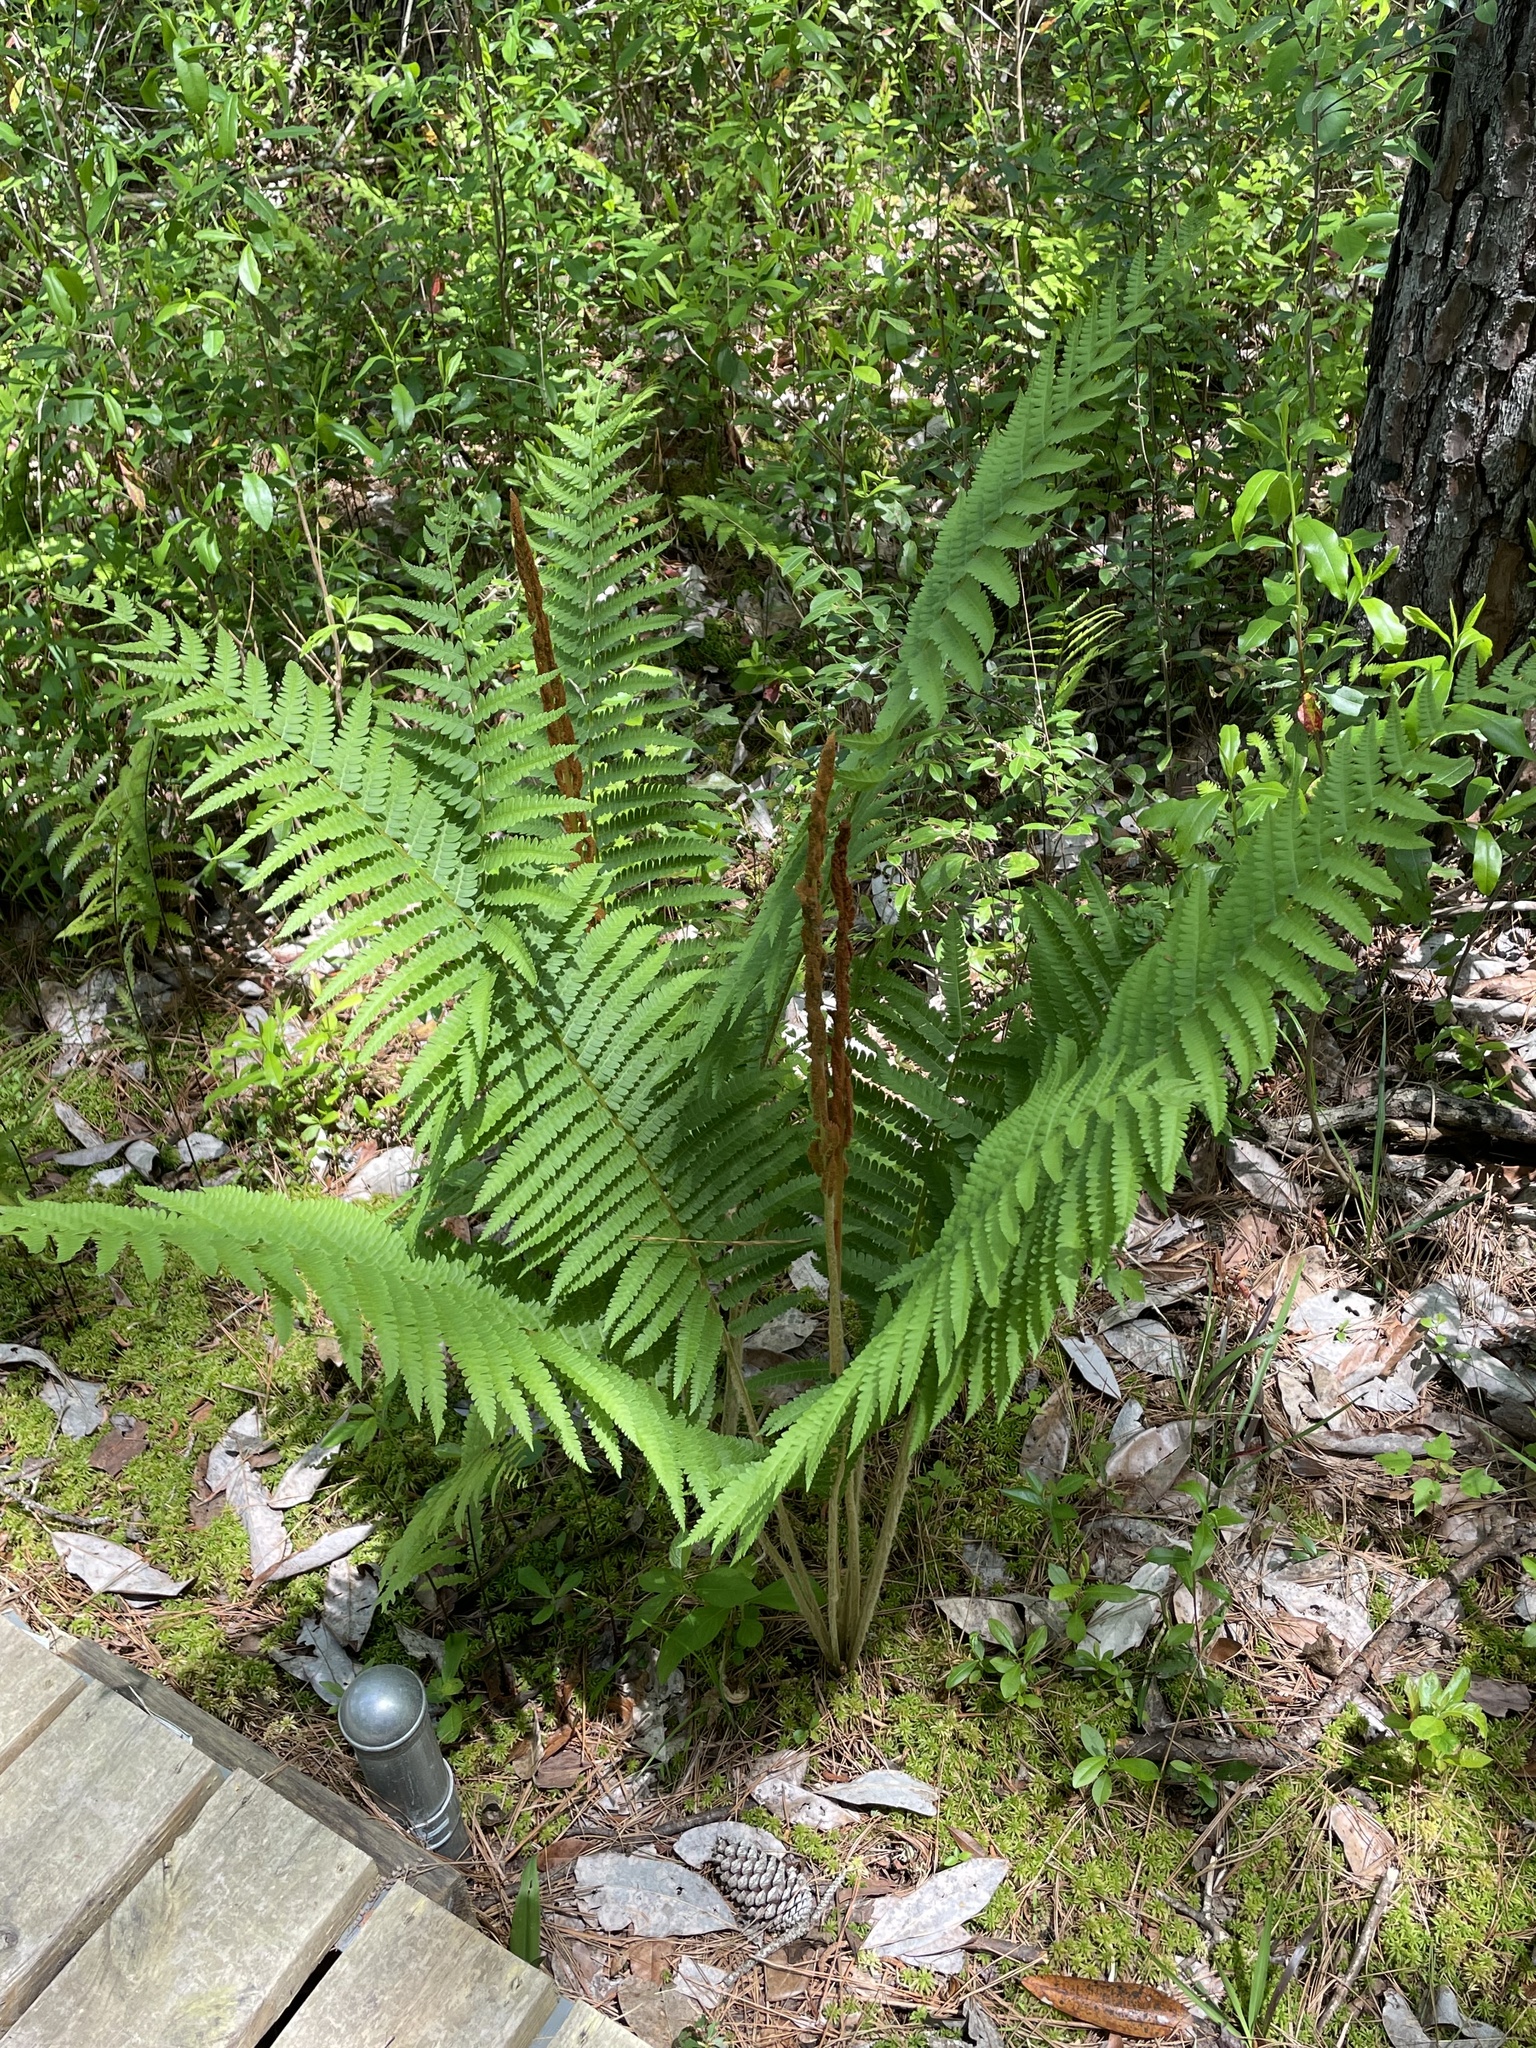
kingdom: Plantae
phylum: Tracheophyta
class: Polypodiopsida
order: Osmundales
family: Osmundaceae
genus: Osmundastrum
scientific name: Osmundastrum cinnamomeum
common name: Cinnamon fern
